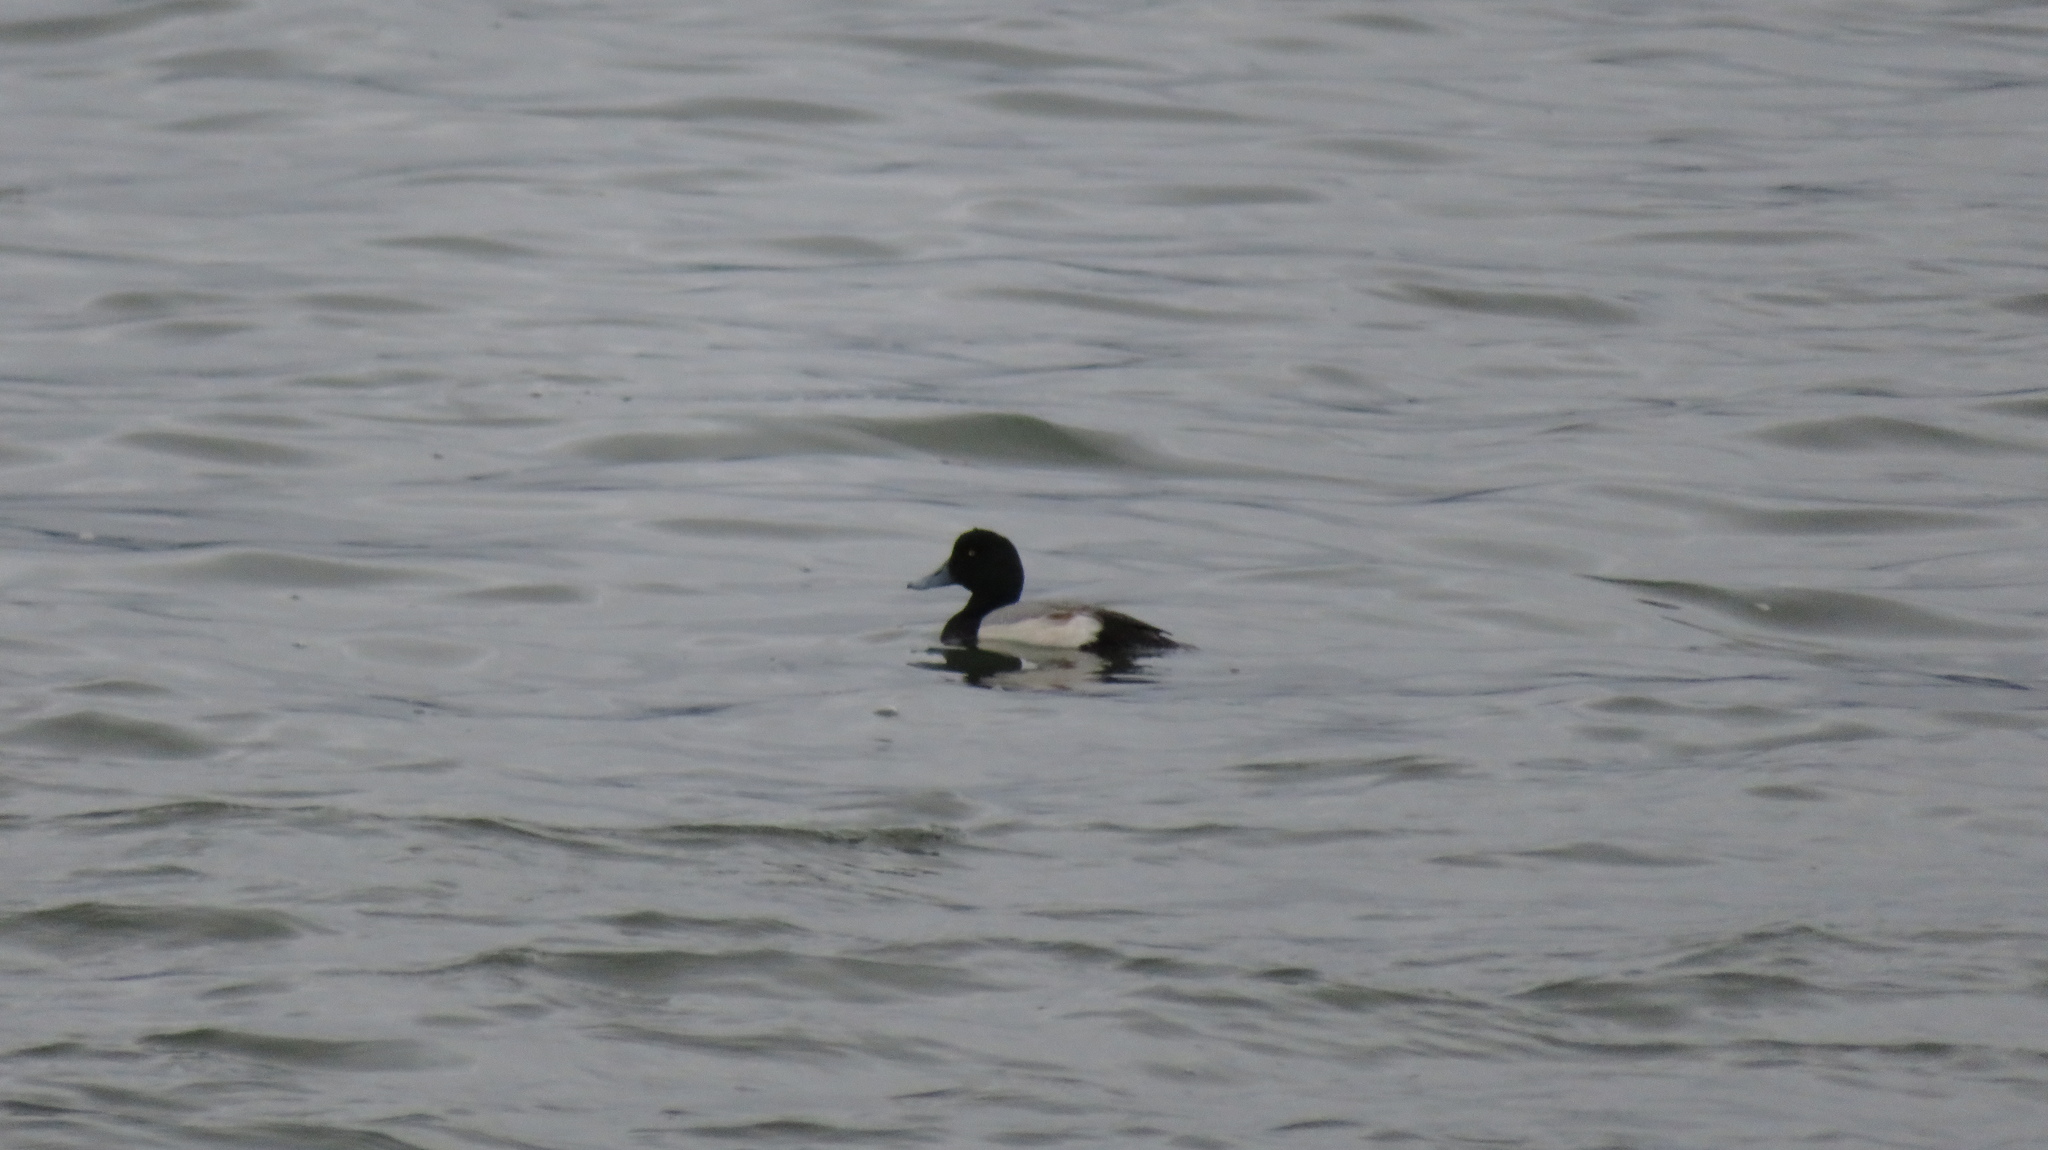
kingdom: Animalia
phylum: Chordata
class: Aves
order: Anseriformes
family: Anatidae
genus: Aythya
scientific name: Aythya marila
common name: Greater scaup
